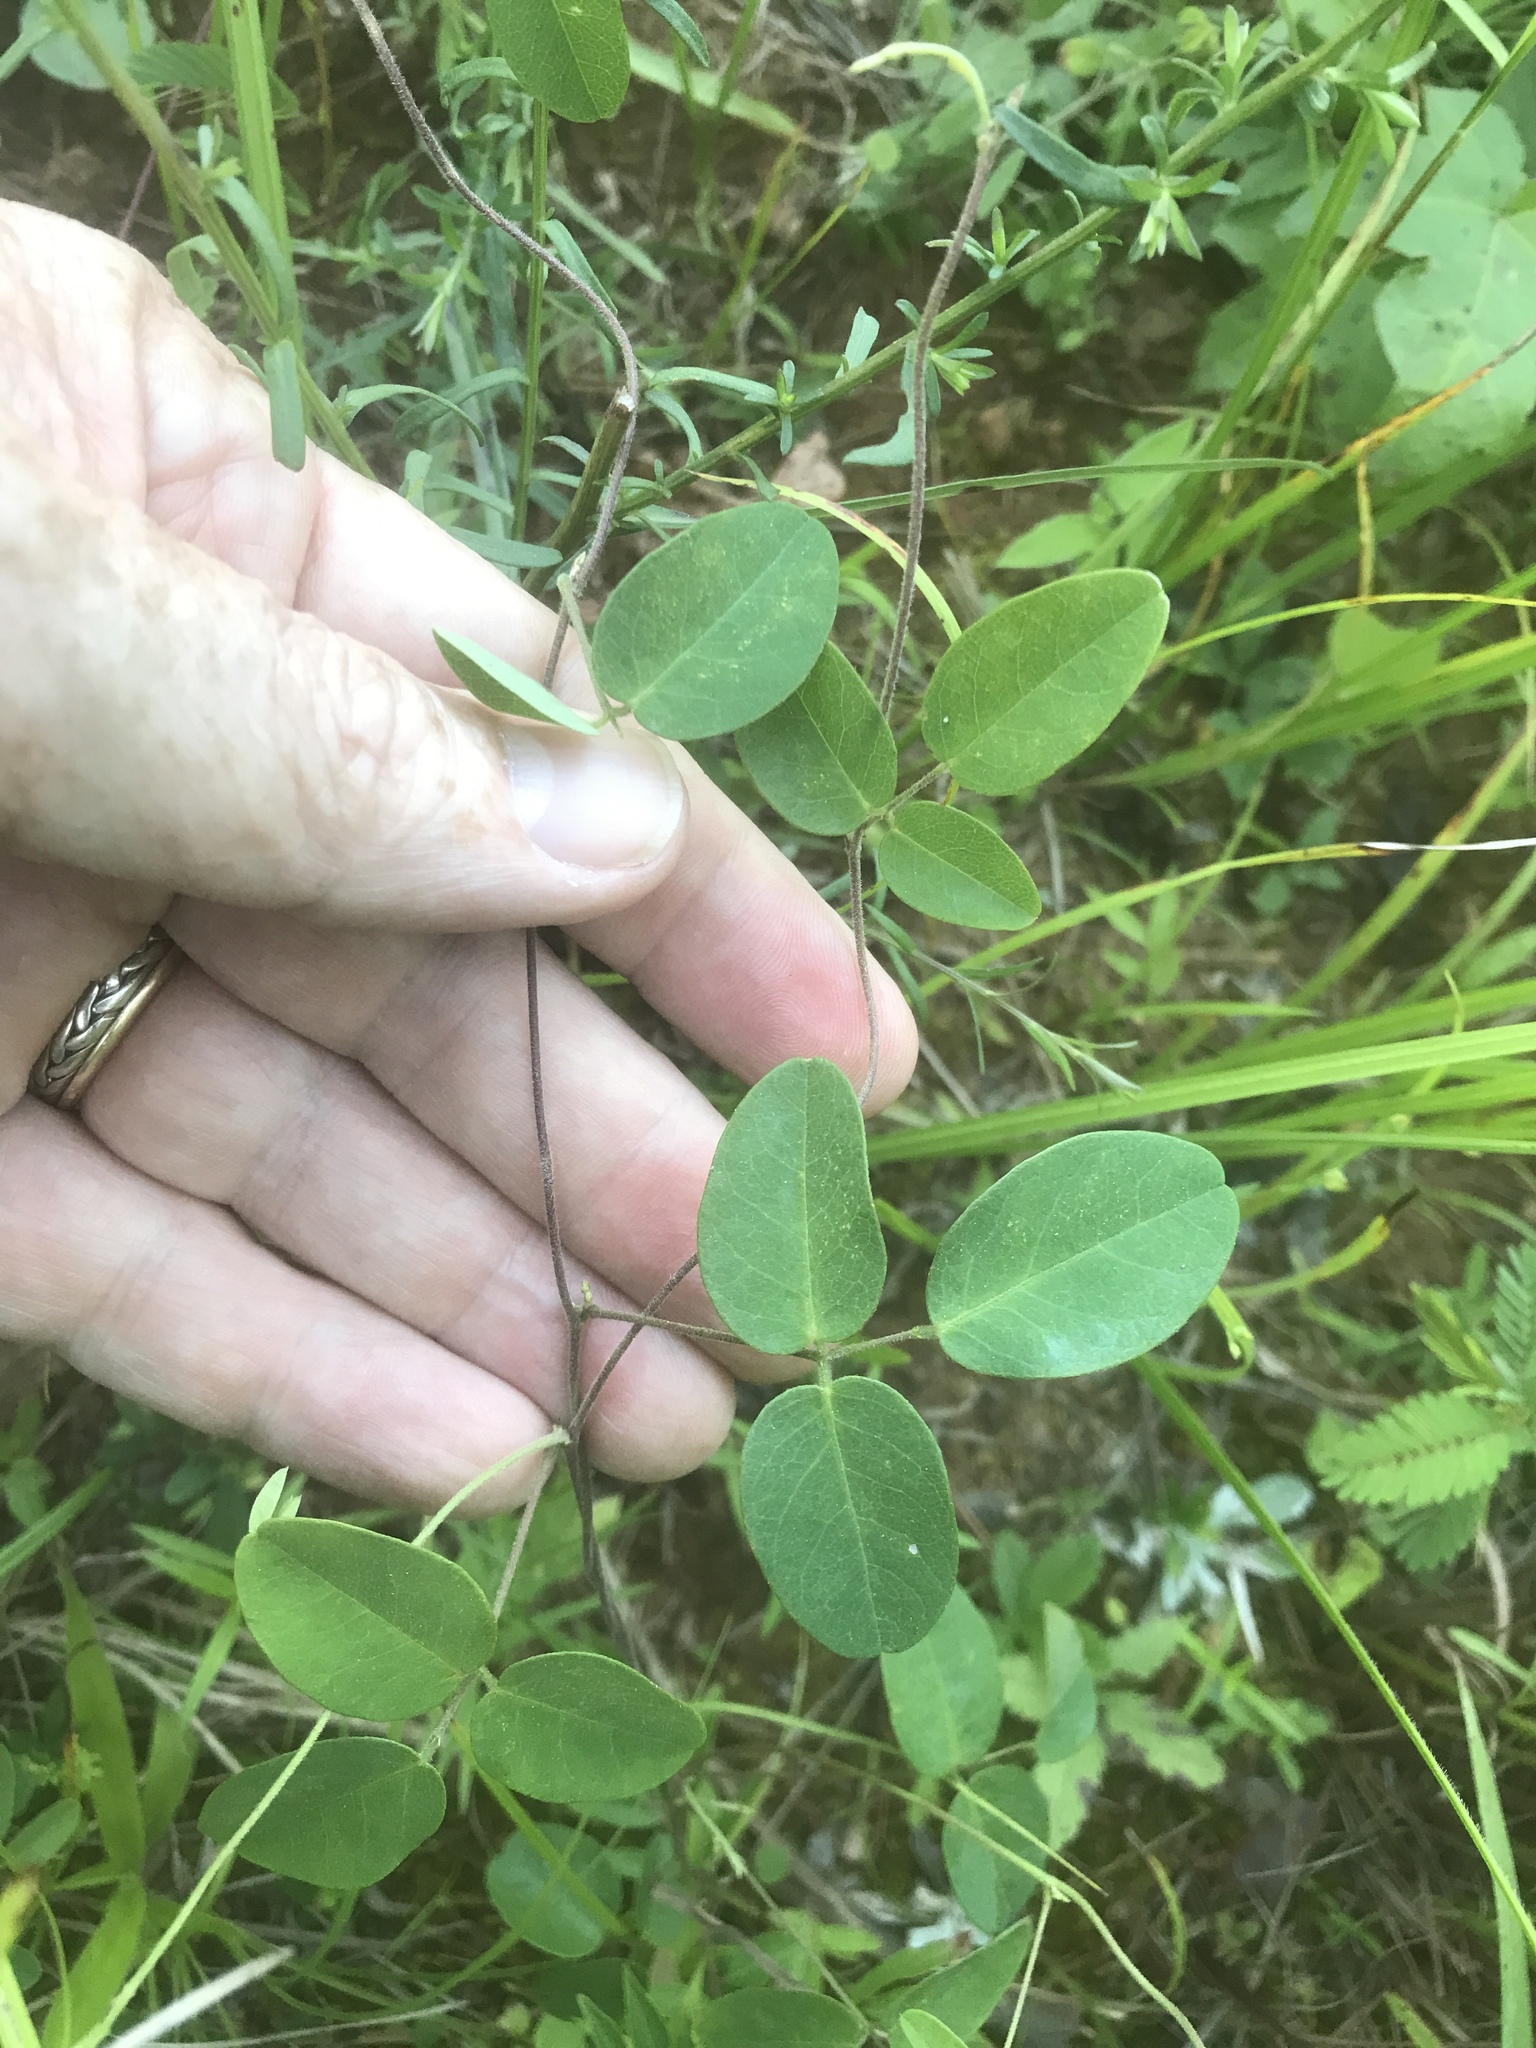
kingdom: Plantae
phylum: Tracheophyta
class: Magnoliopsida
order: Fabales
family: Fabaceae
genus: Galactia
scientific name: Galactia regularis
